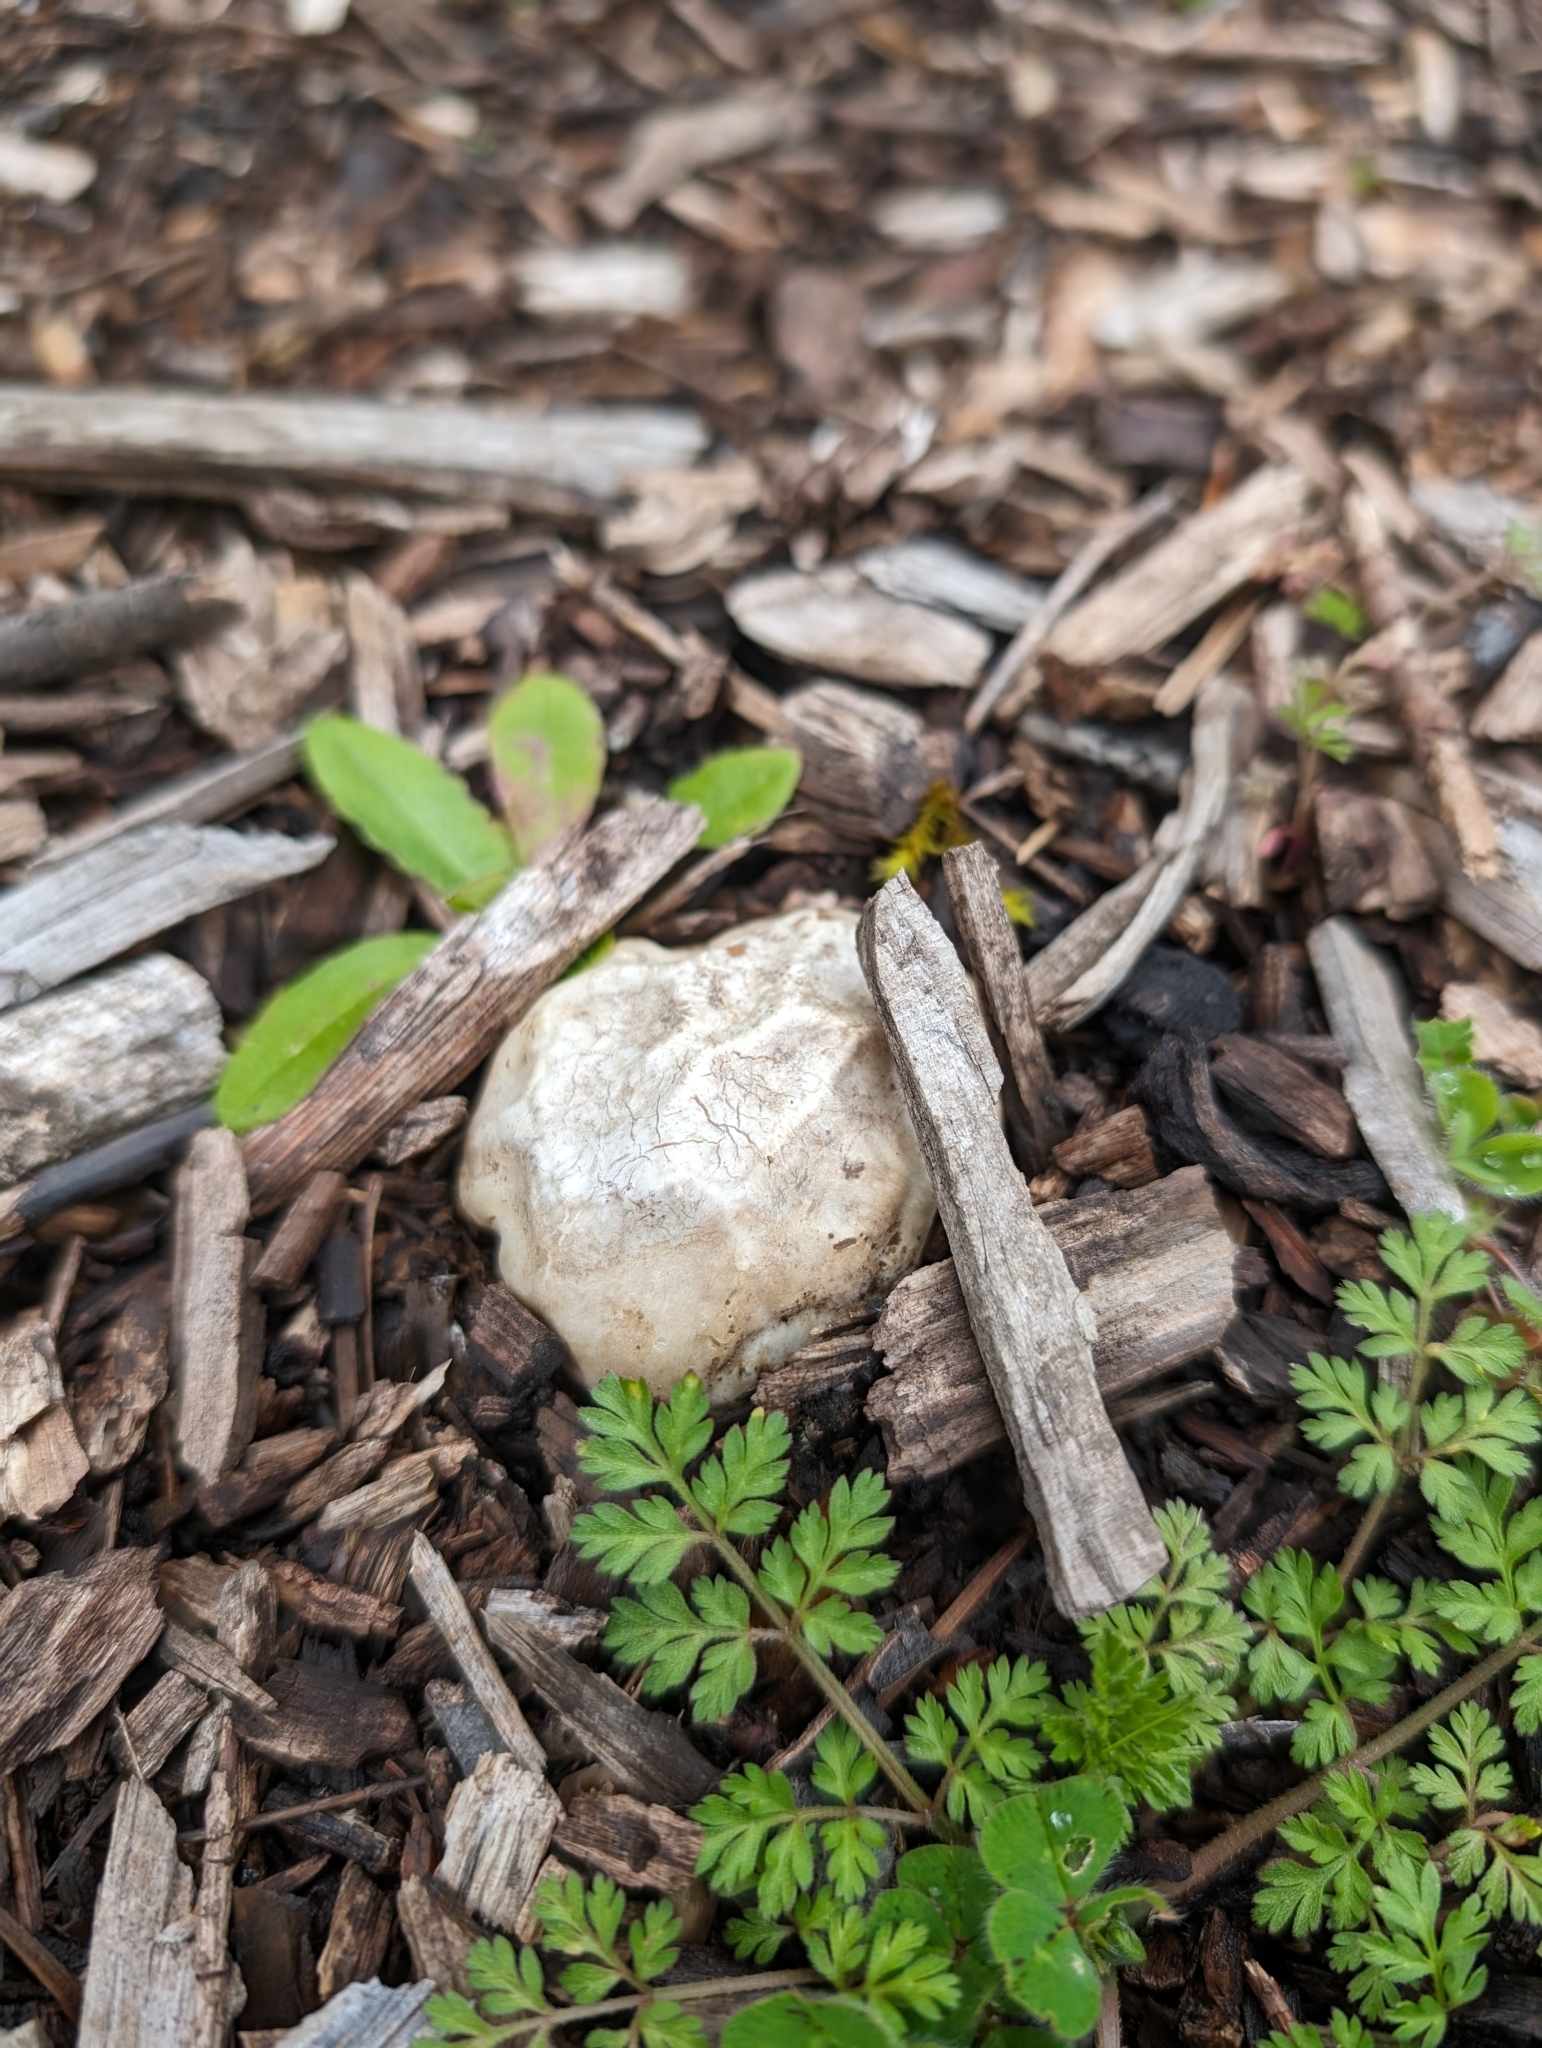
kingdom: Fungi
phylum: Basidiomycota
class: Agaricomycetes
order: Phallales
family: Phallaceae
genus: Clathrus
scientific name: Clathrus ruber
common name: Red cage
